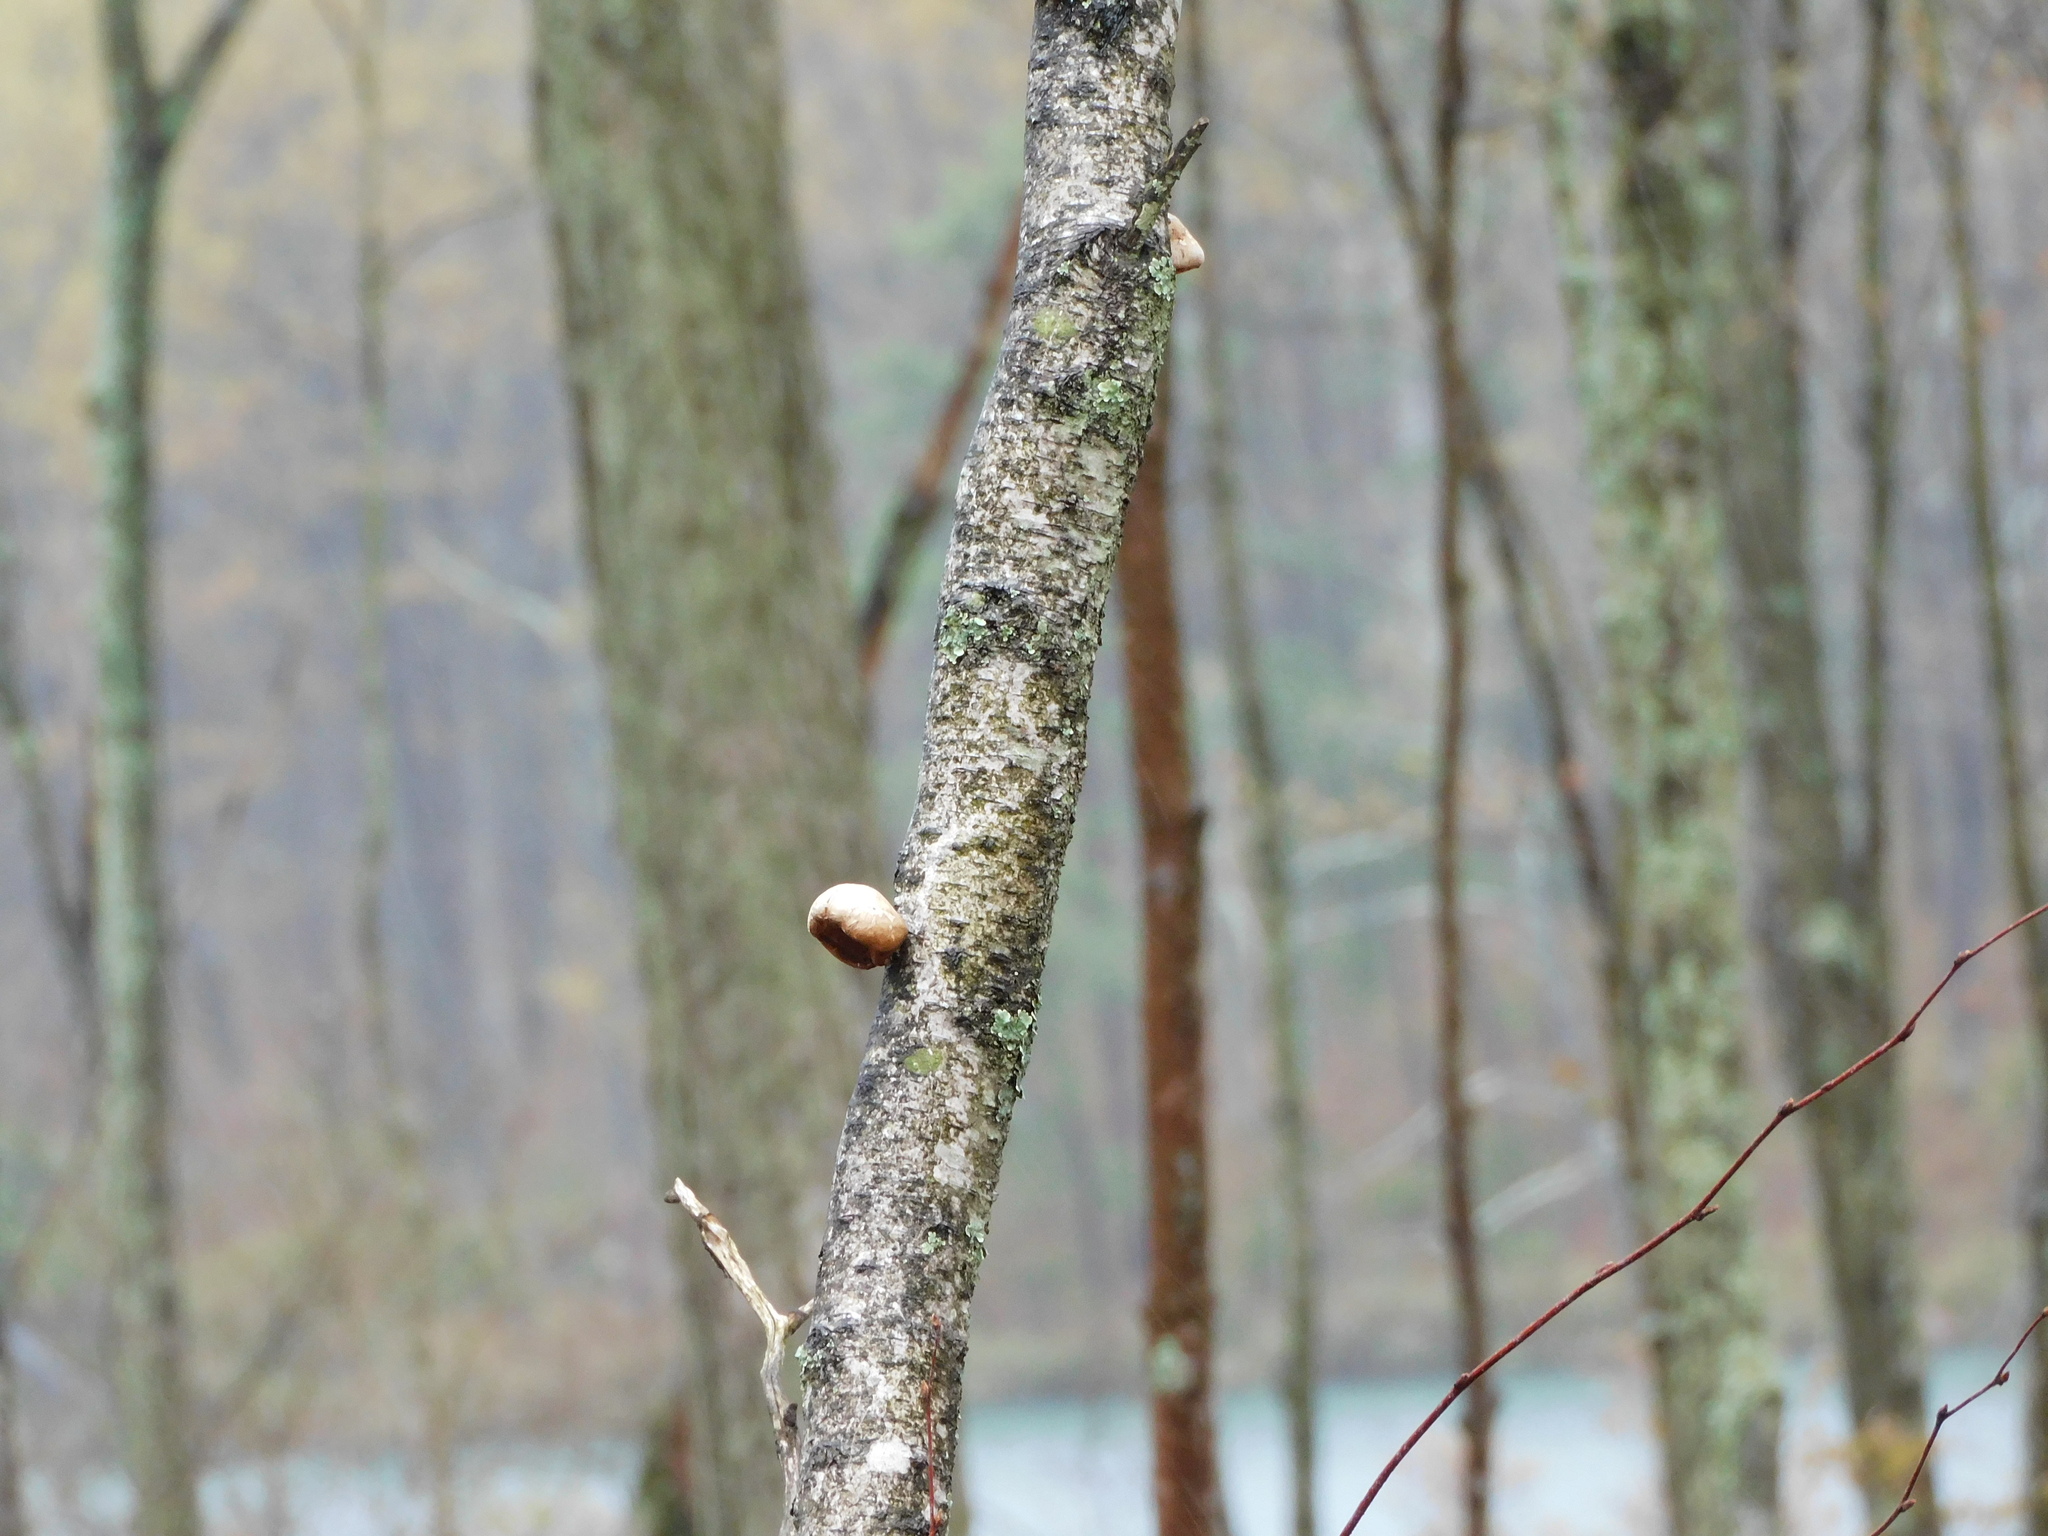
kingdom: Fungi
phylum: Basidiomycota
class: Agaricomycetes
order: Polyporales
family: Fomitopsidaceae
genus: Fomitopsis
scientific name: Fomitopsis betulina
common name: Birch polypore
